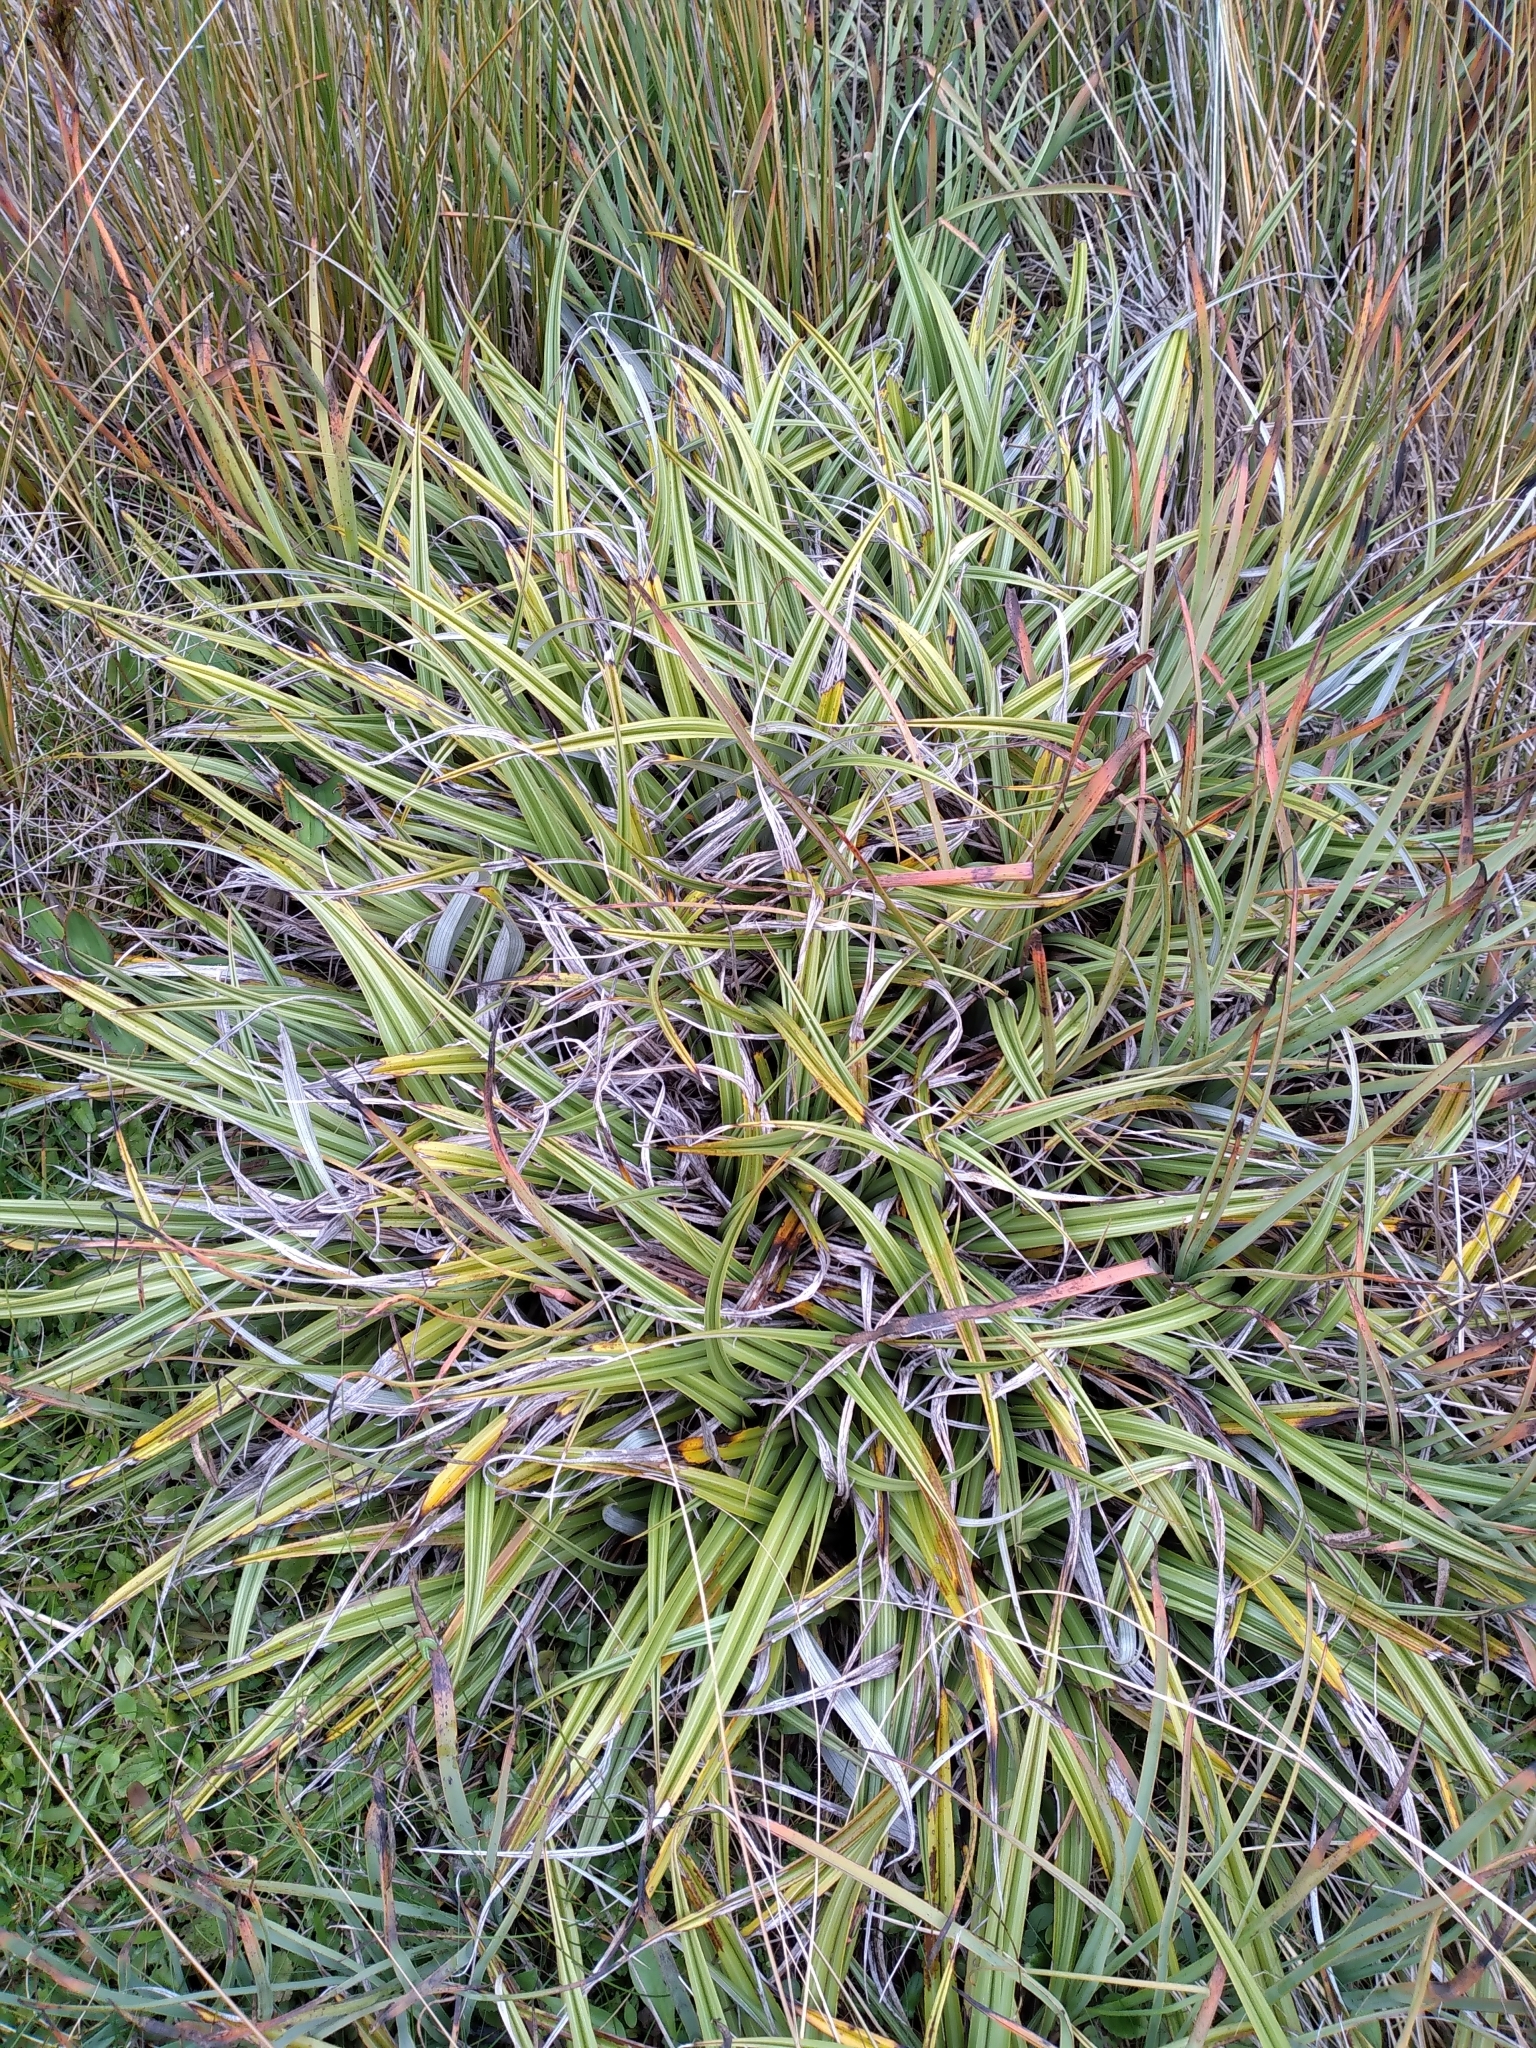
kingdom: Plantae
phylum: Tracheophyta
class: Liliopsida
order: Asparagales
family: Asteliaceae
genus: Astelia
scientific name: Astelia petriei
